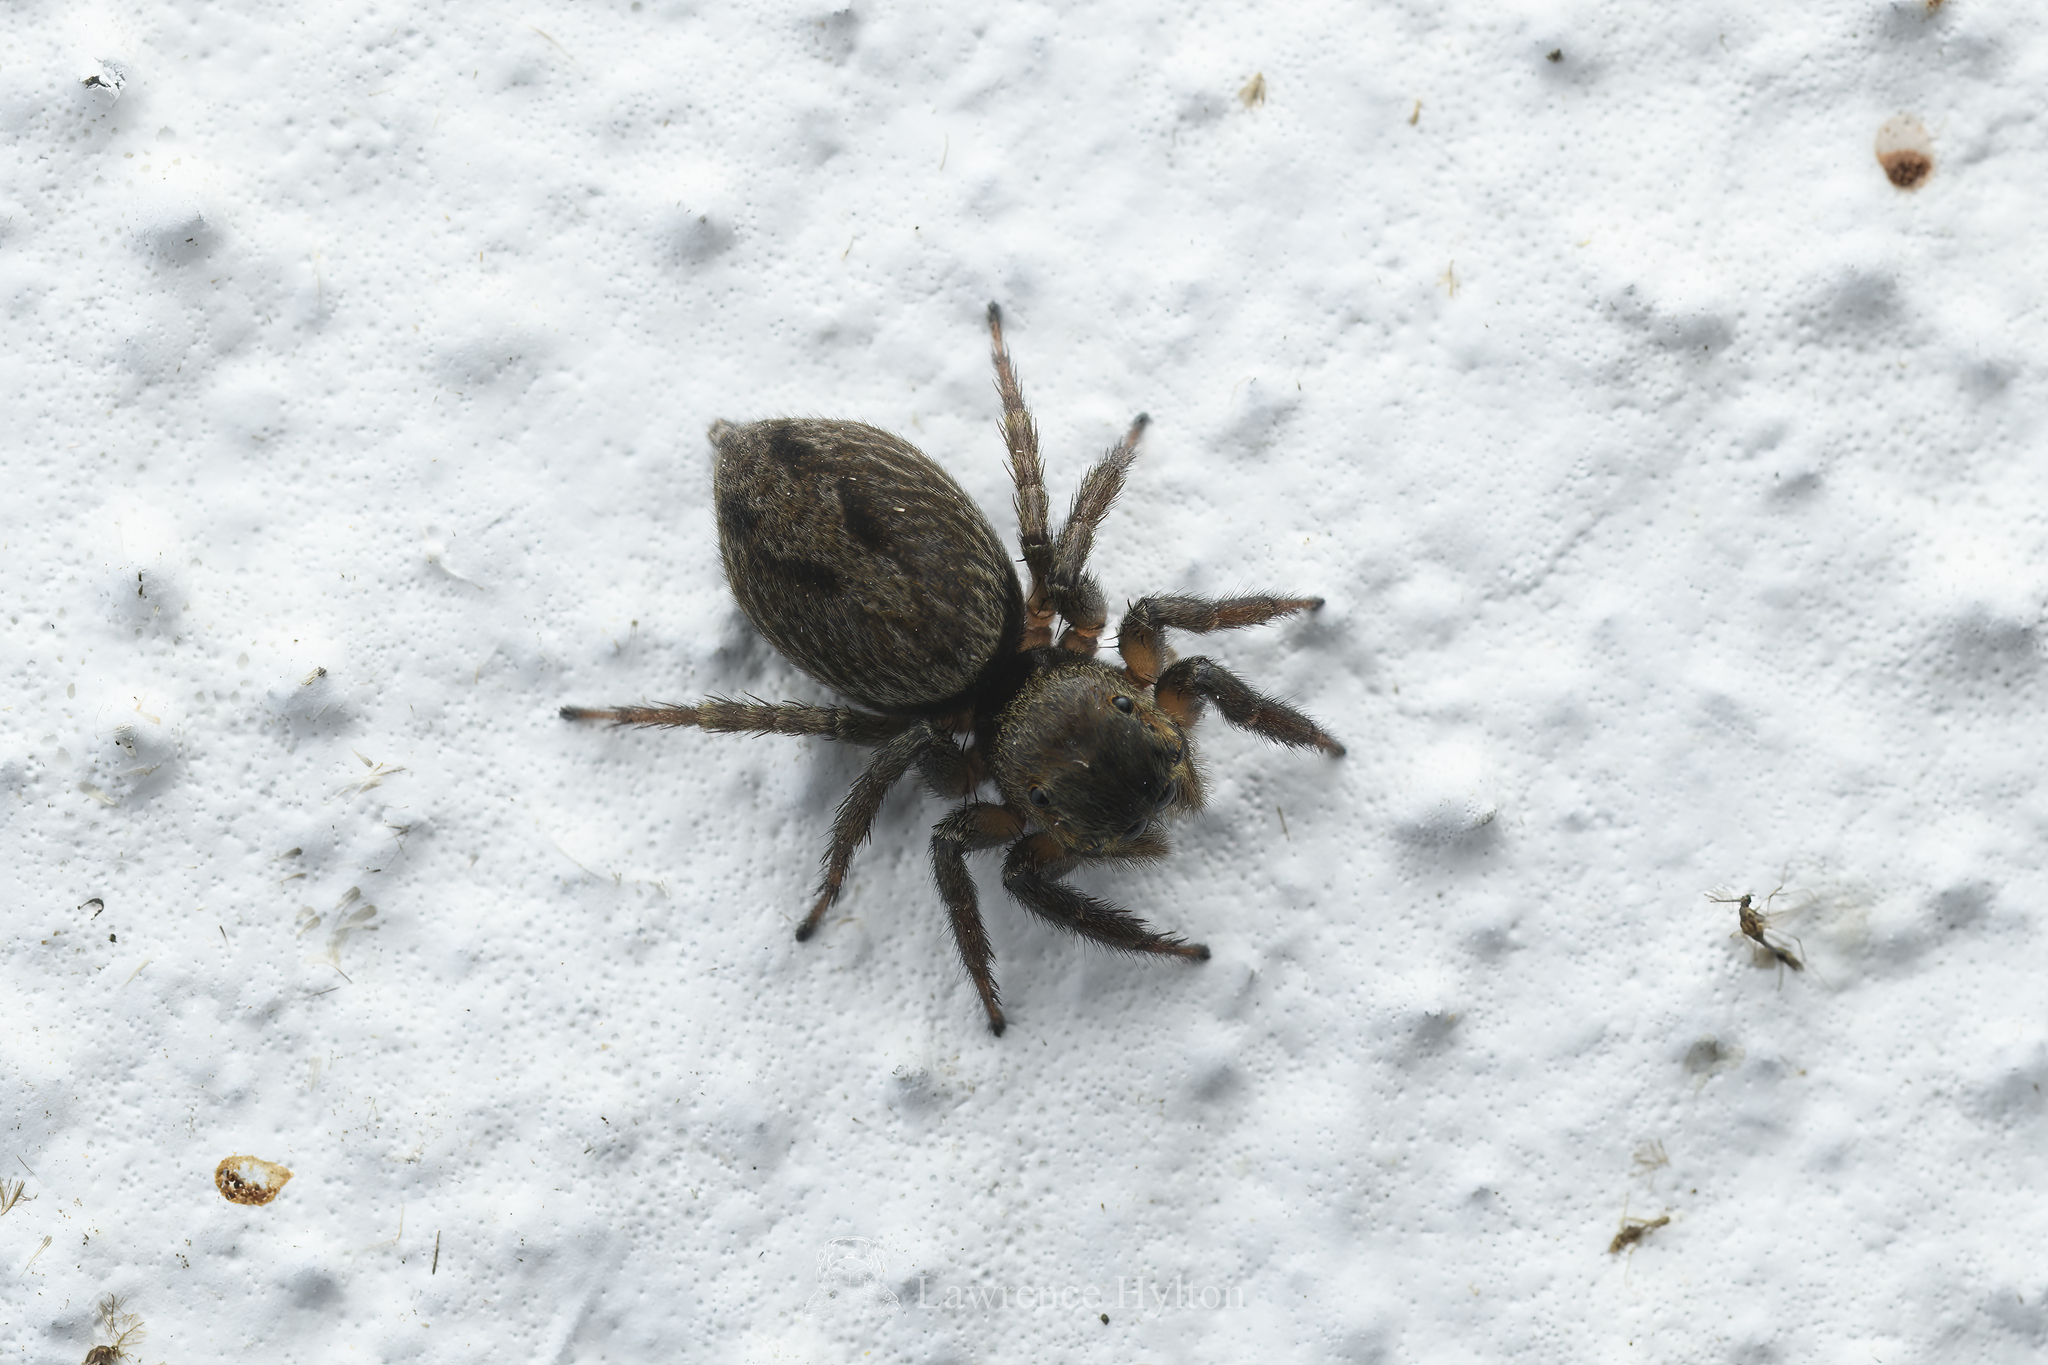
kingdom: Animalia
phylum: Arthropoda
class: Arachnida
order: Araneae
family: Salticidae
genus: Hasarius
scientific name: Hasarius adansoni
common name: Jumping spider
